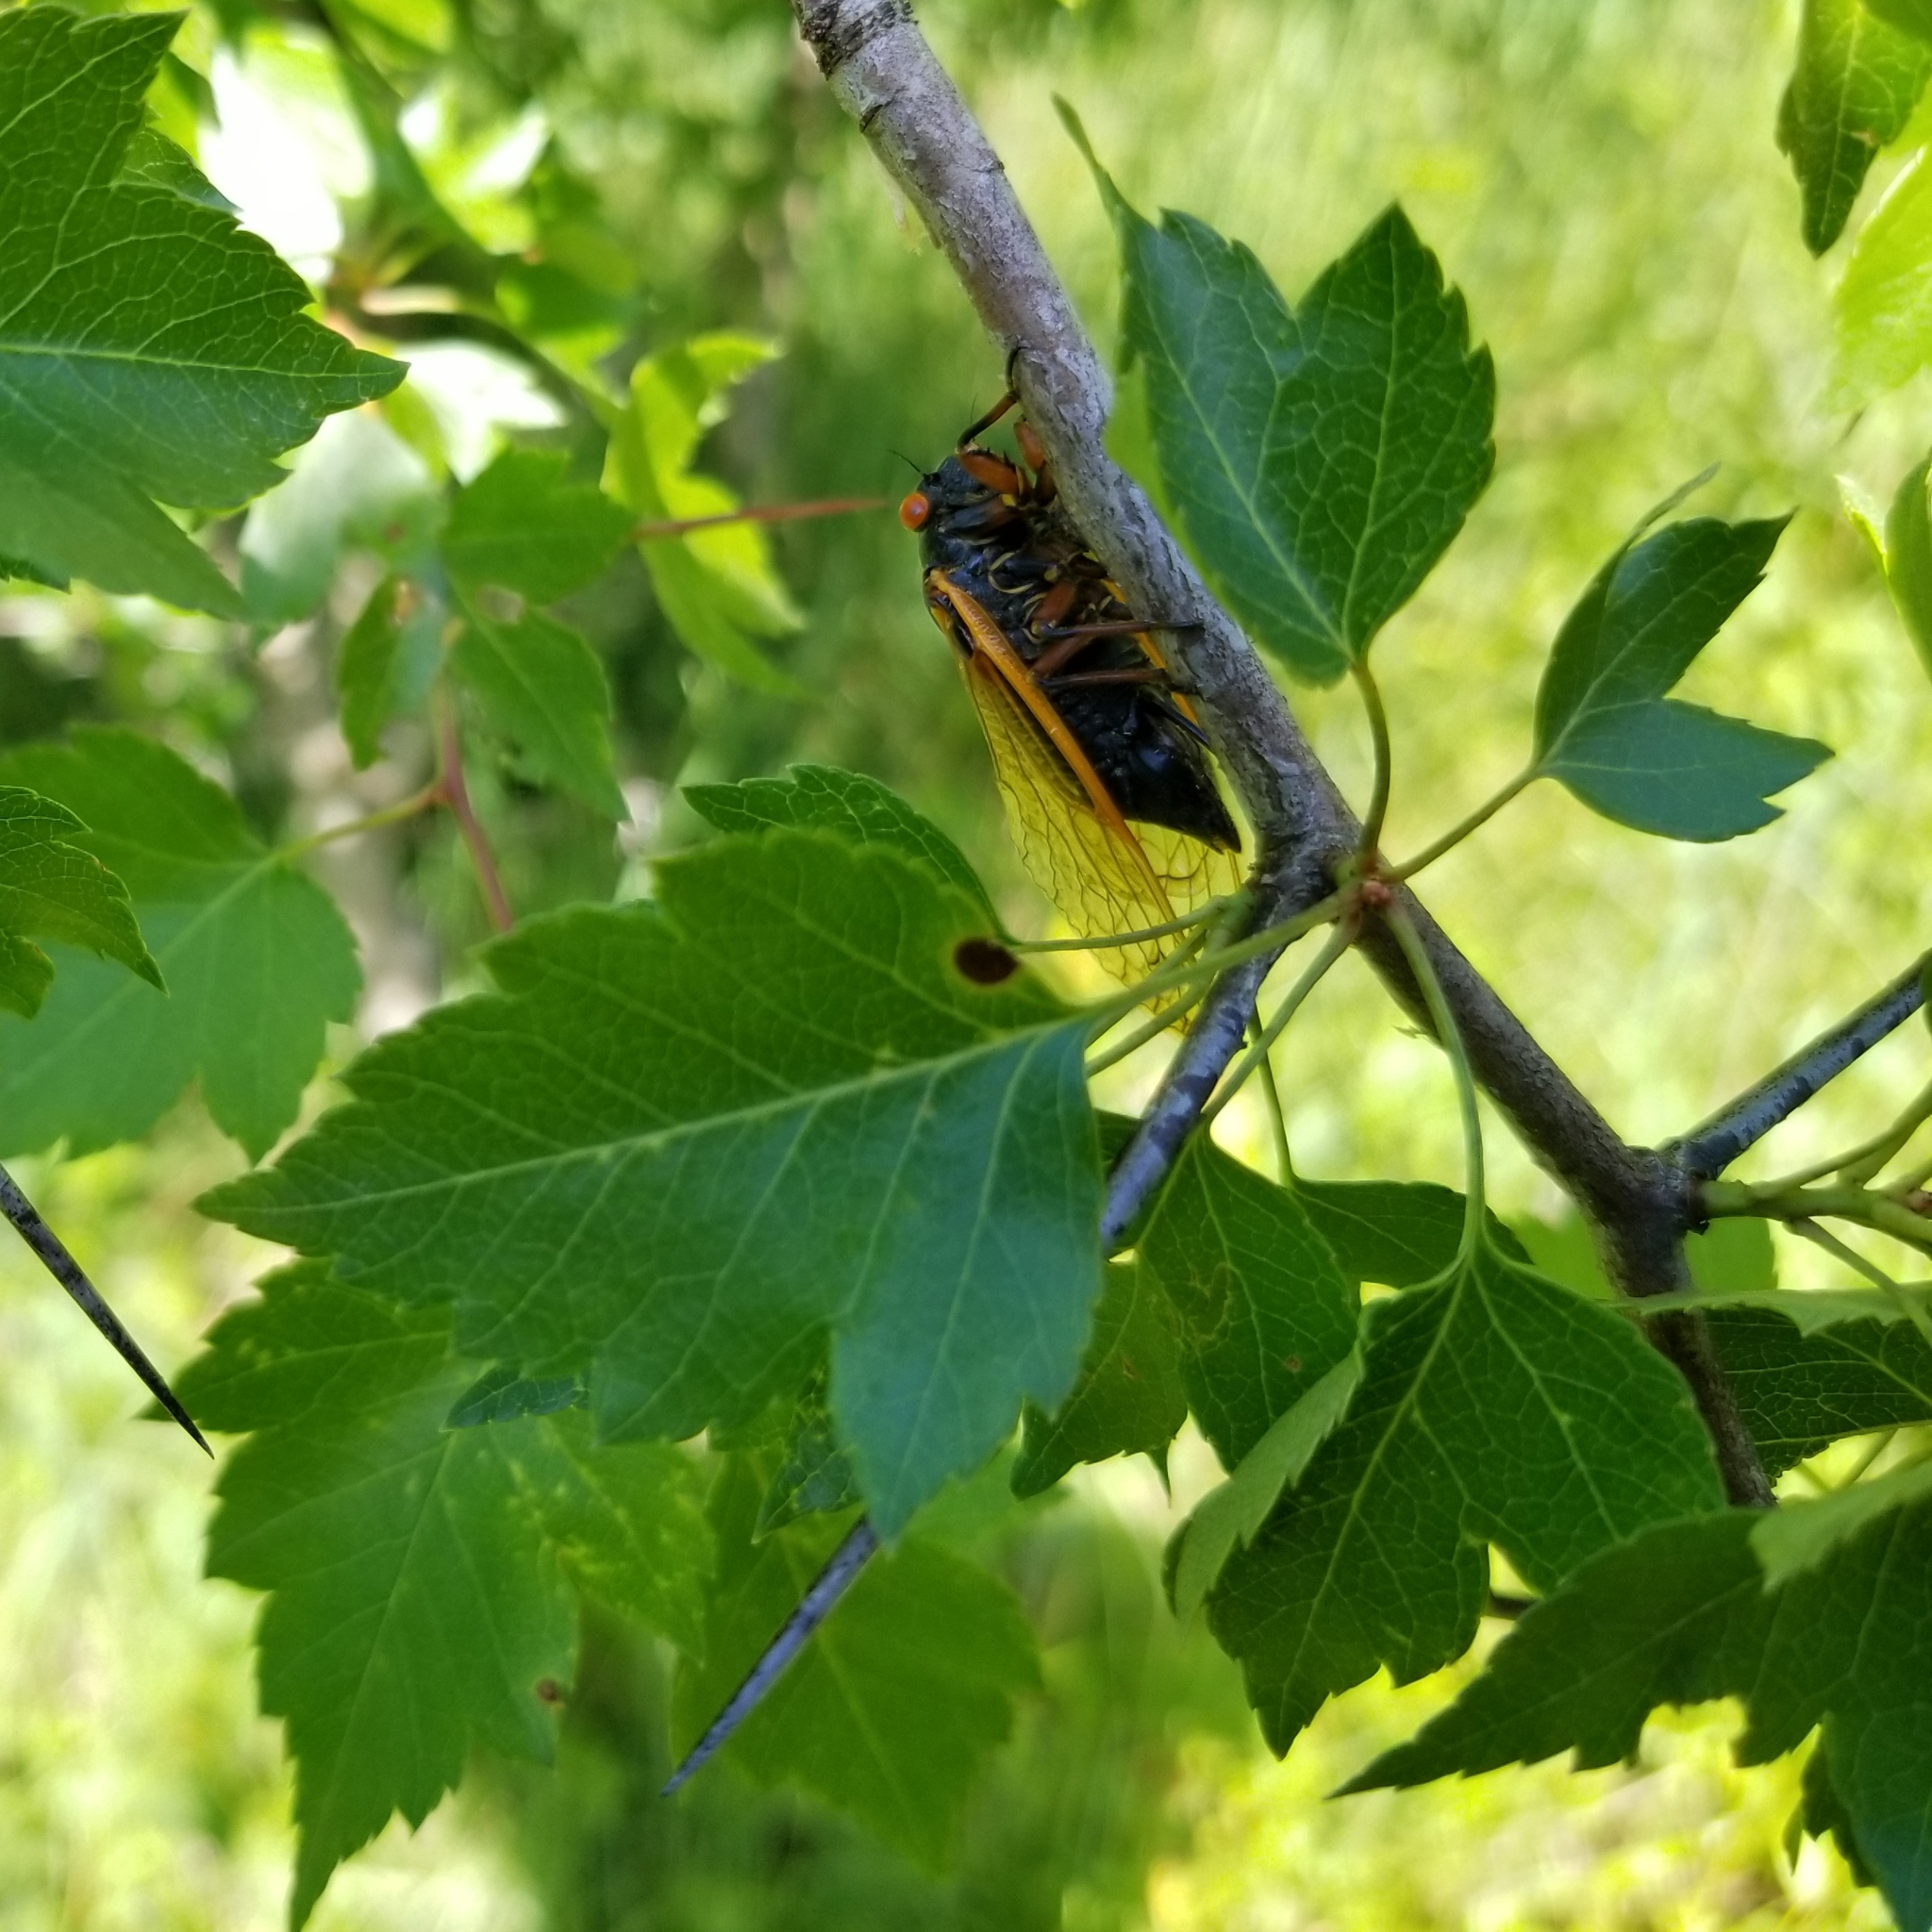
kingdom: Animalia
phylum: Arthropoda
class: Insecta
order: Hemiptera
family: Cicadidae
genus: Magicicada
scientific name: Magicicada cassini
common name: Cassin's 17-year cicada
